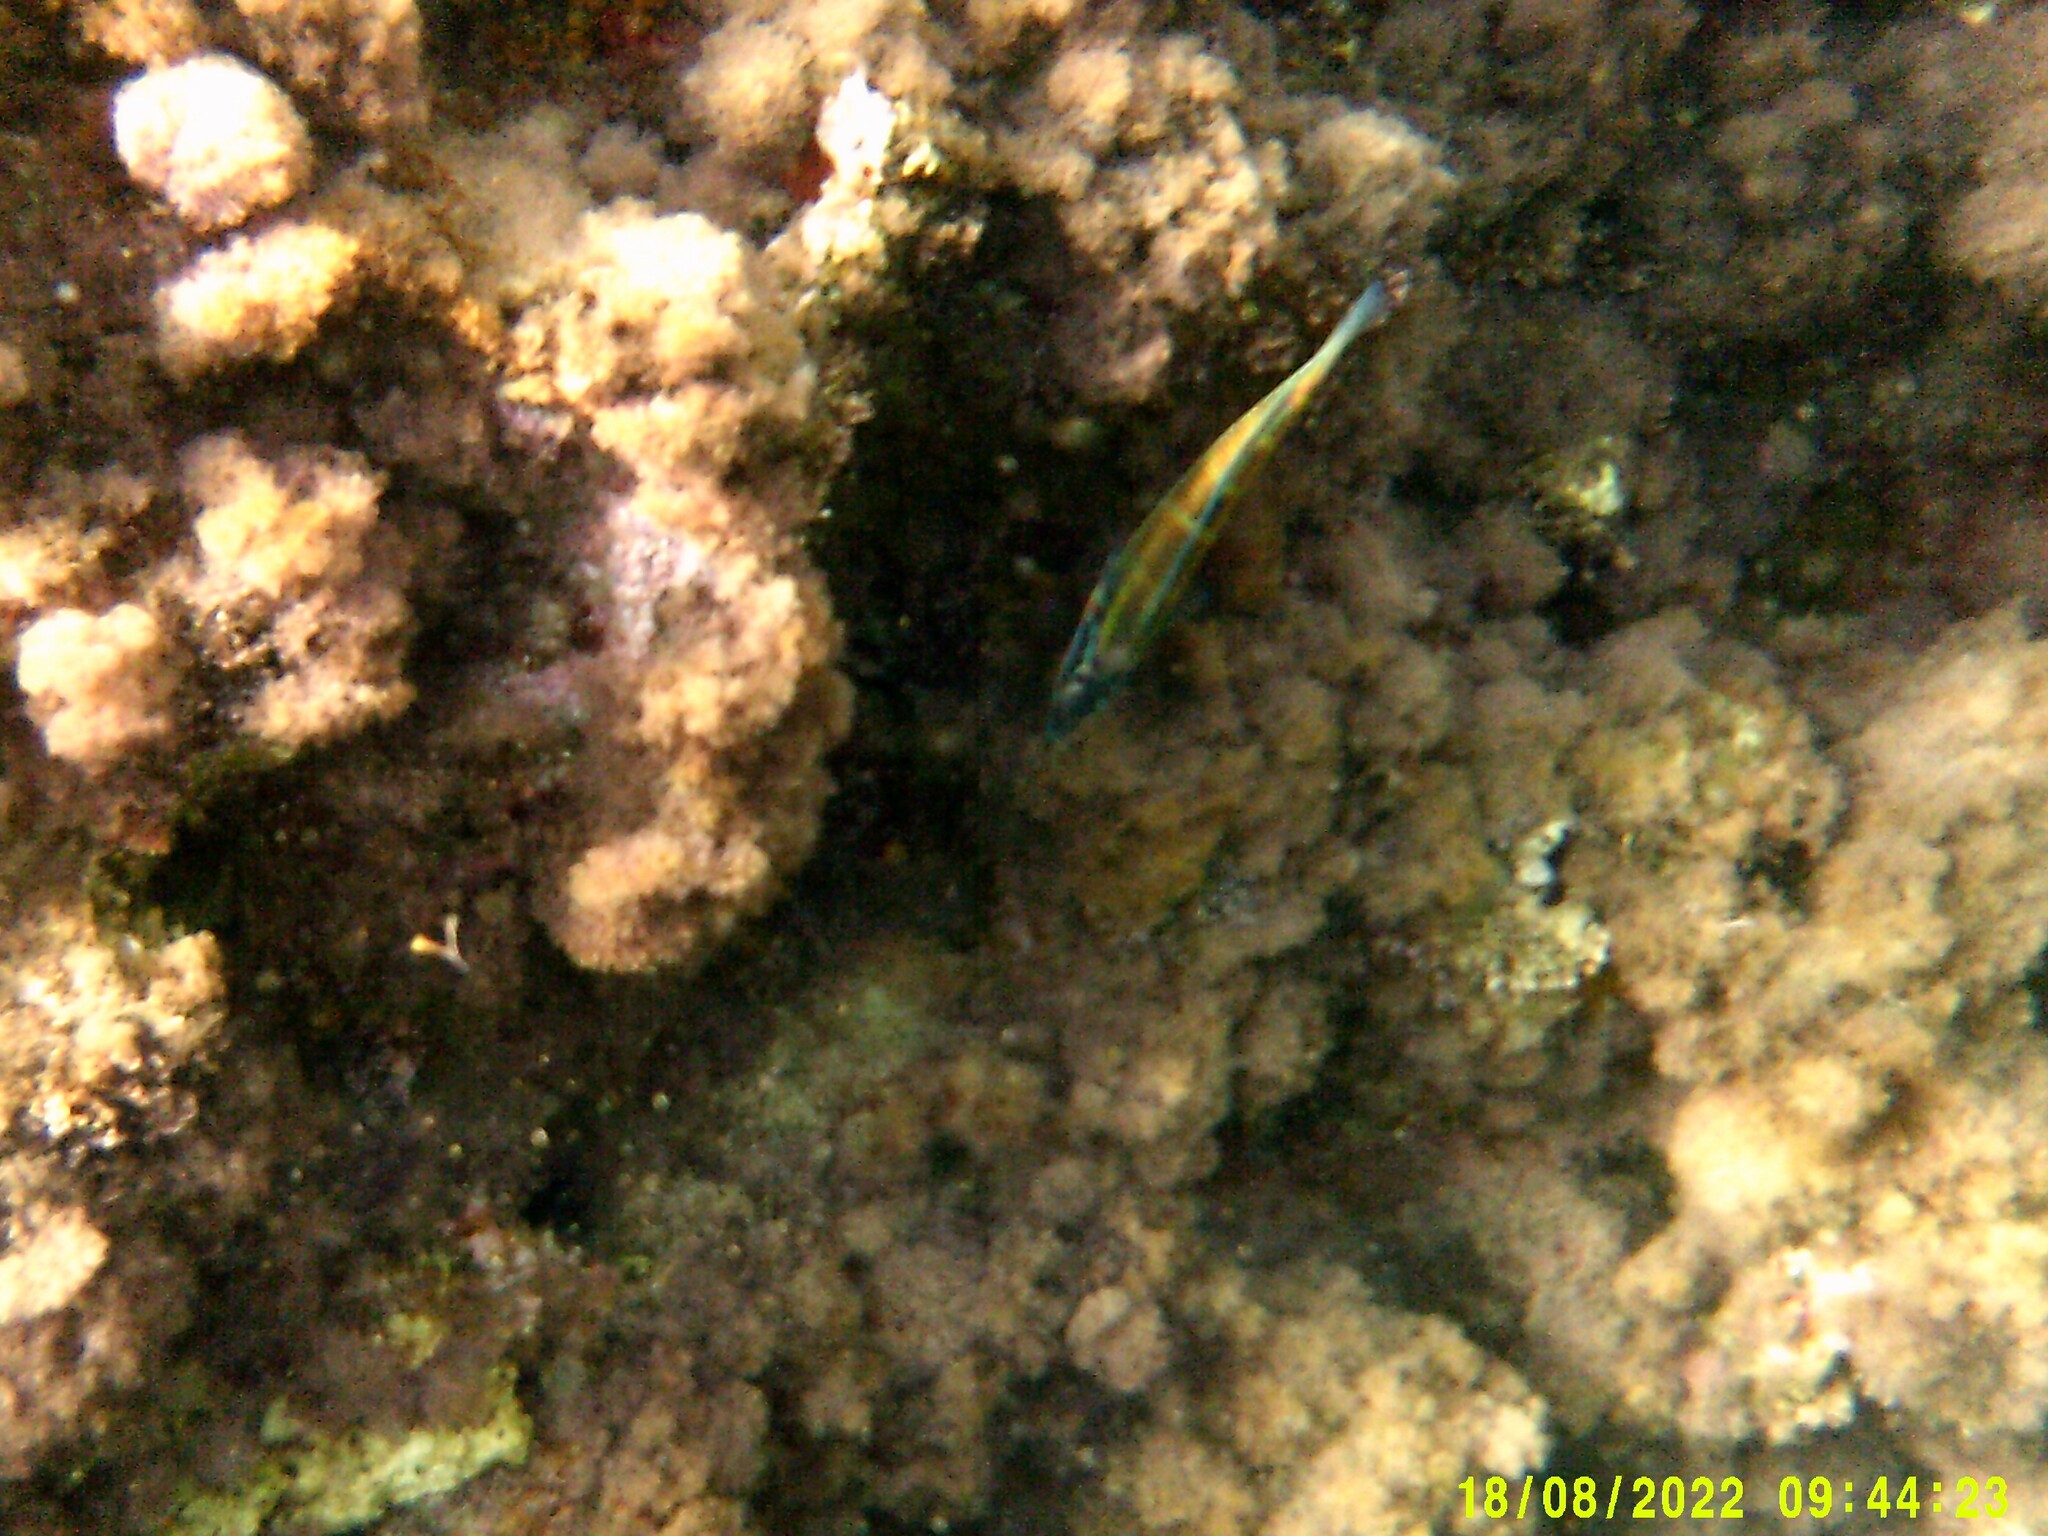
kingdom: Animalia
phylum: Chordata
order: Perciformes
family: Labridae
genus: Thalassoma
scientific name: Thalassoma pavo
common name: Ornate wrasse
